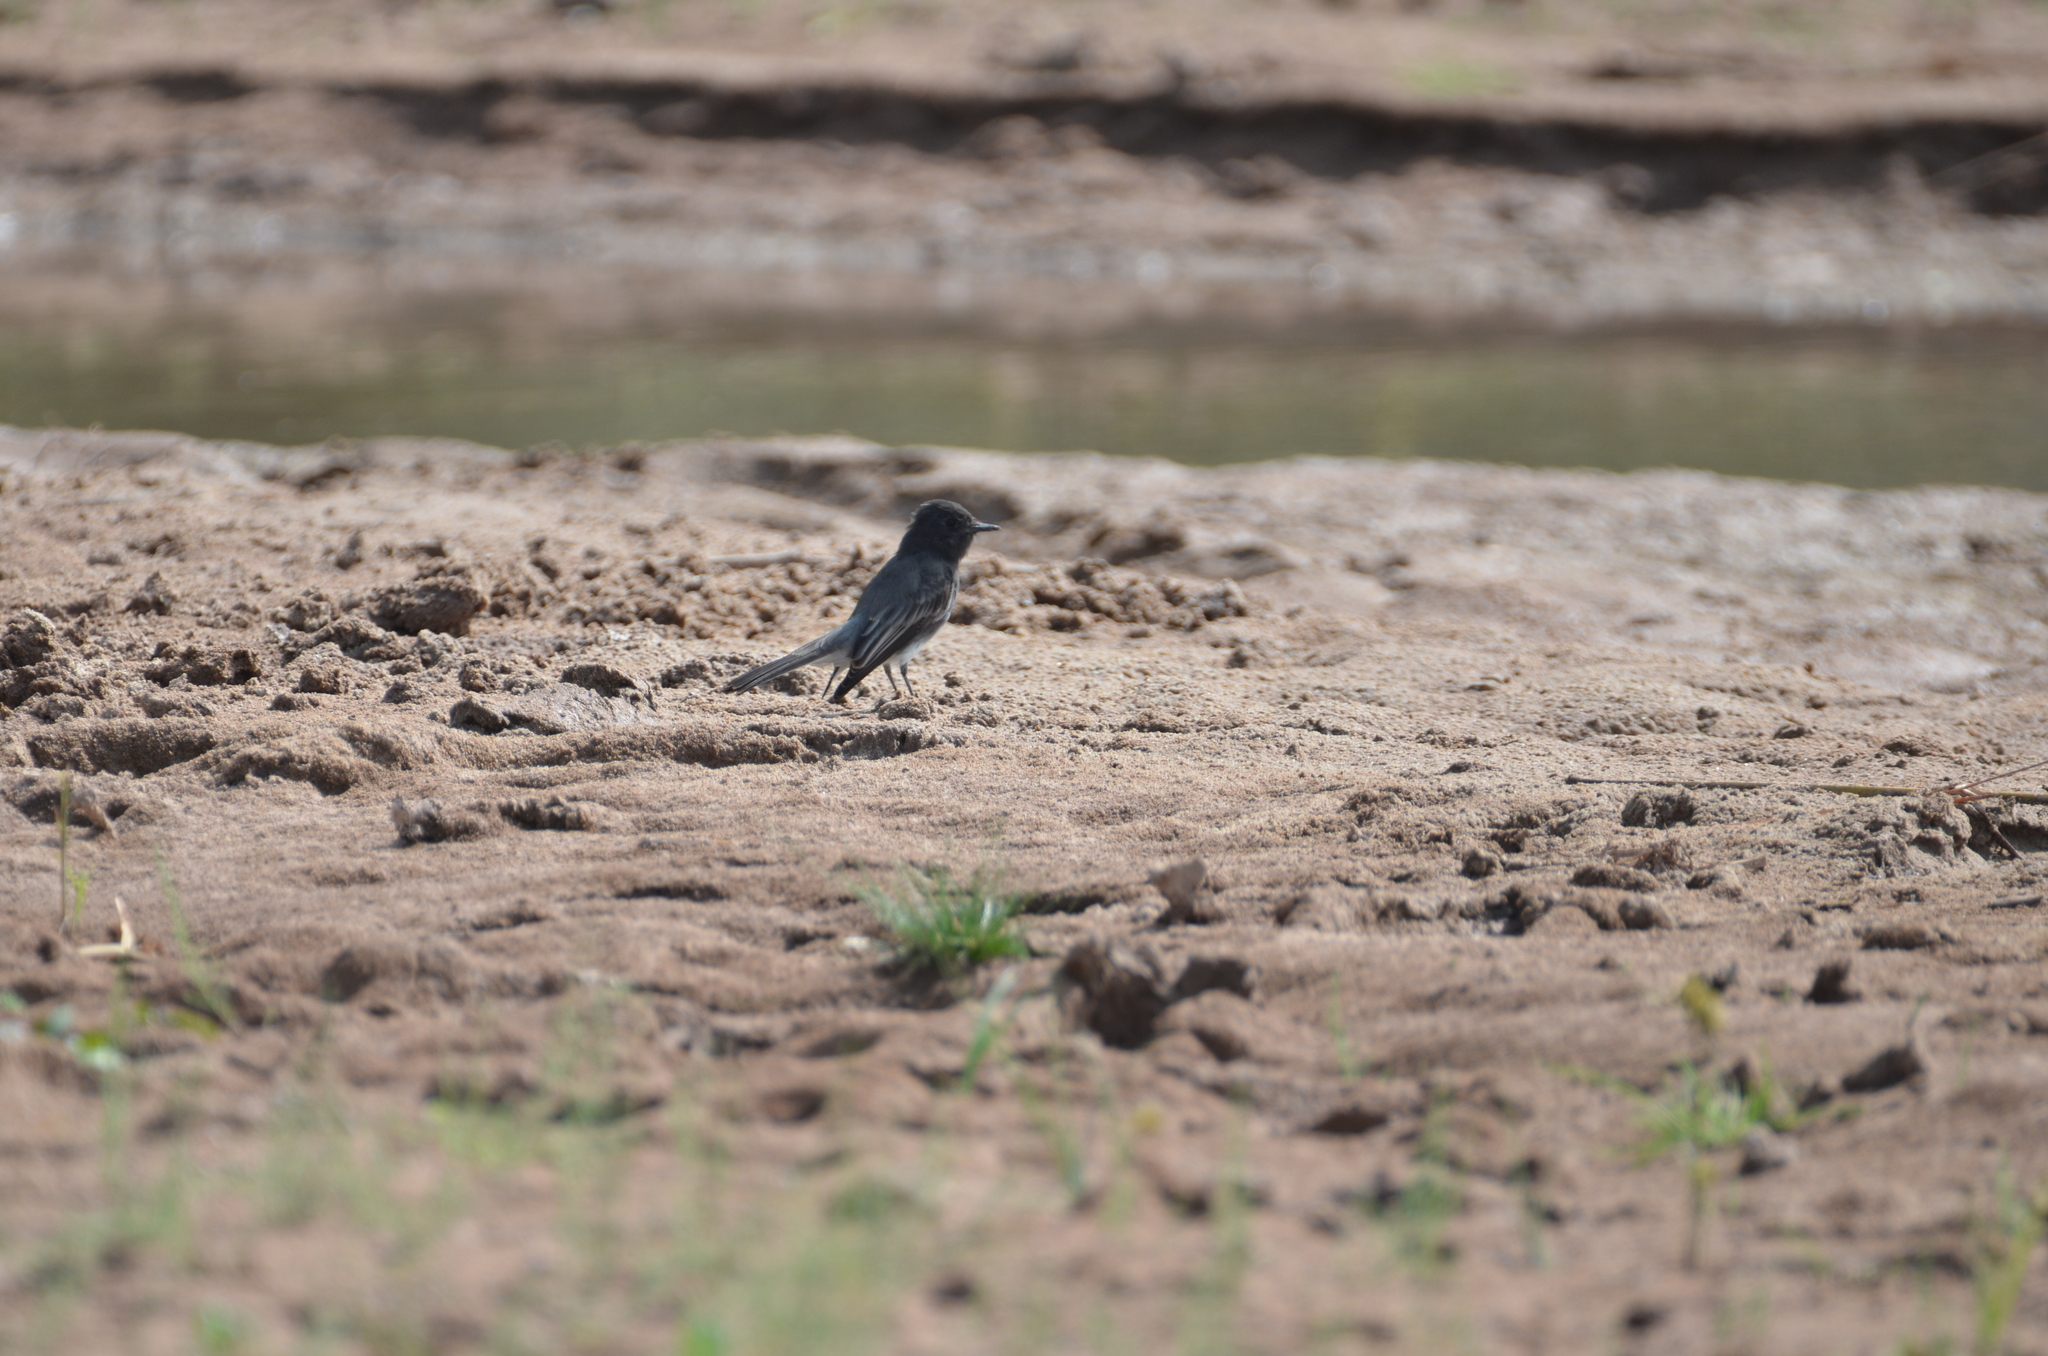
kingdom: Animalia
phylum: Chordata
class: Aves
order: Passeriformes
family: Tyrannidae
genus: Sayornis
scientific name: Sayornis nigricans
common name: Black phoebe
